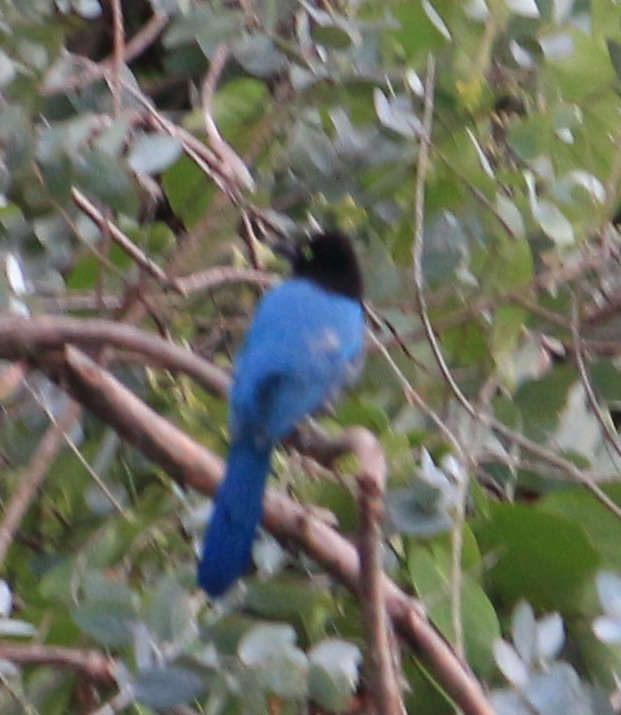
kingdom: Animalia
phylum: Chordata
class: Aves
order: Passeriformes
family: Corvidae
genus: Cyanocorax
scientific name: Cyanocorax melanocyaneus
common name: Bushy-crested jay
